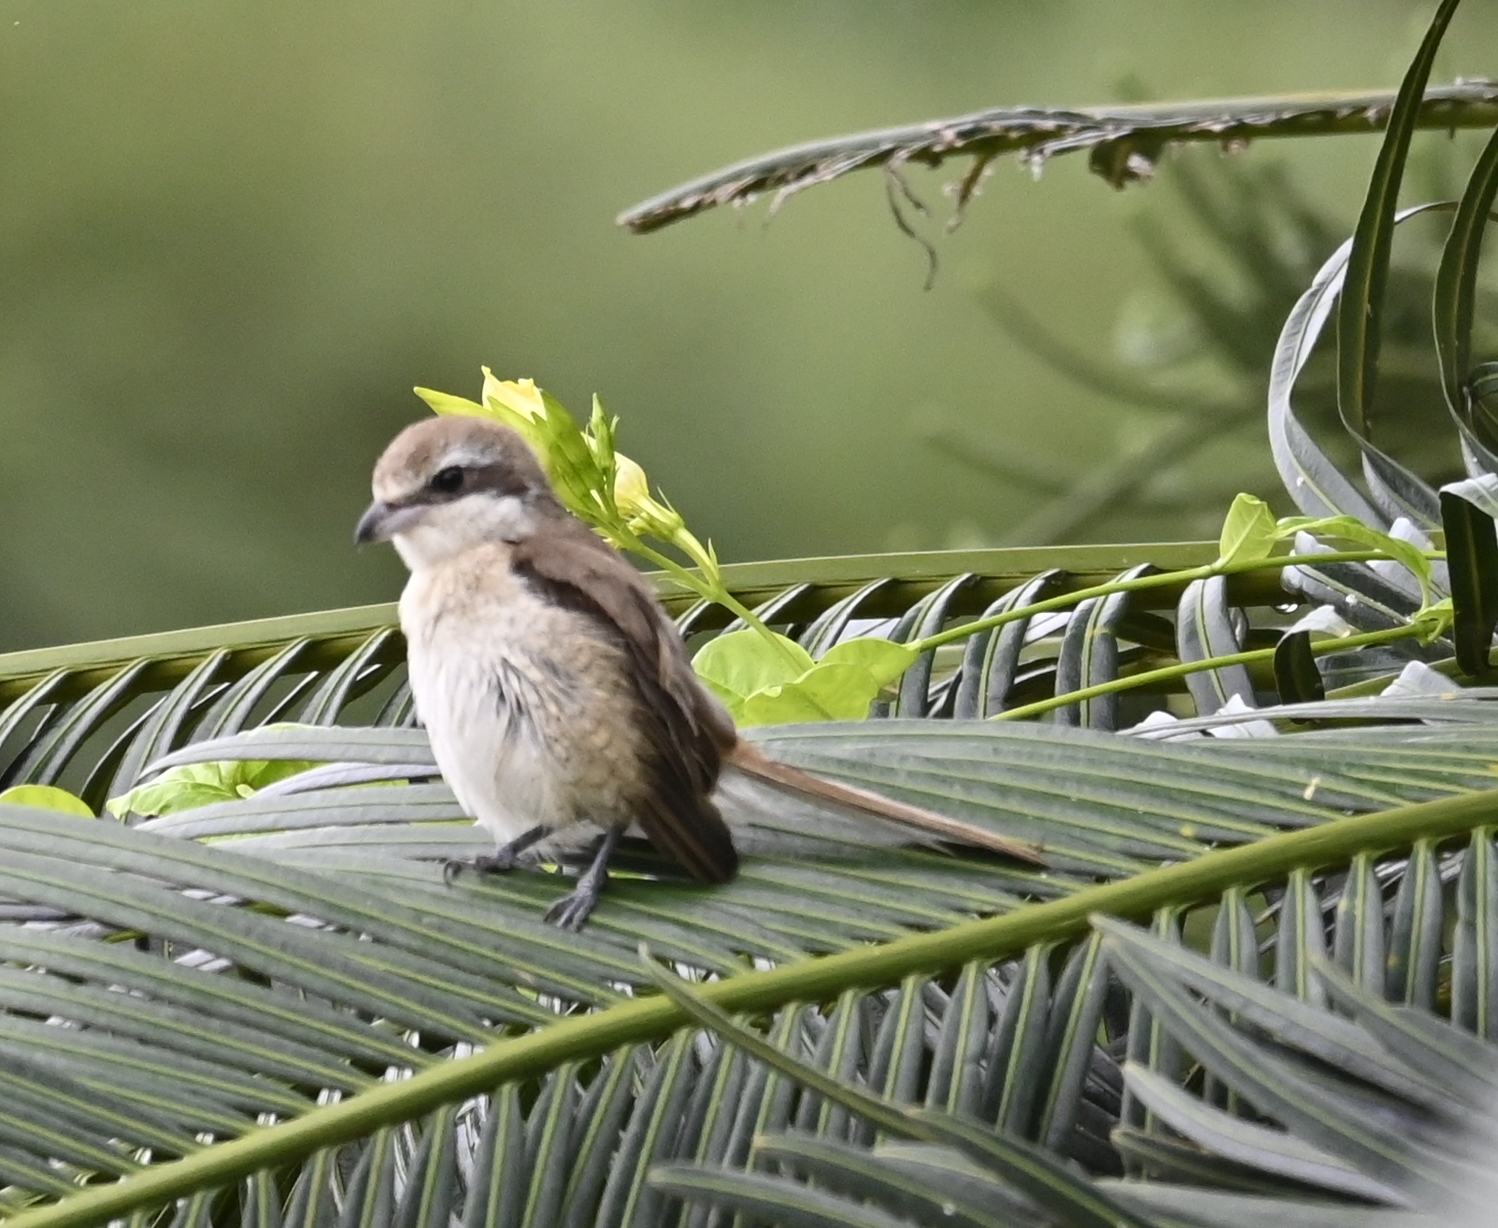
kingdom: Animalia
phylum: Chordata
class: Aves
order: Passeriformes
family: Laniidae
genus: Lanius
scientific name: Lanius cristatus
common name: Brown shrike
